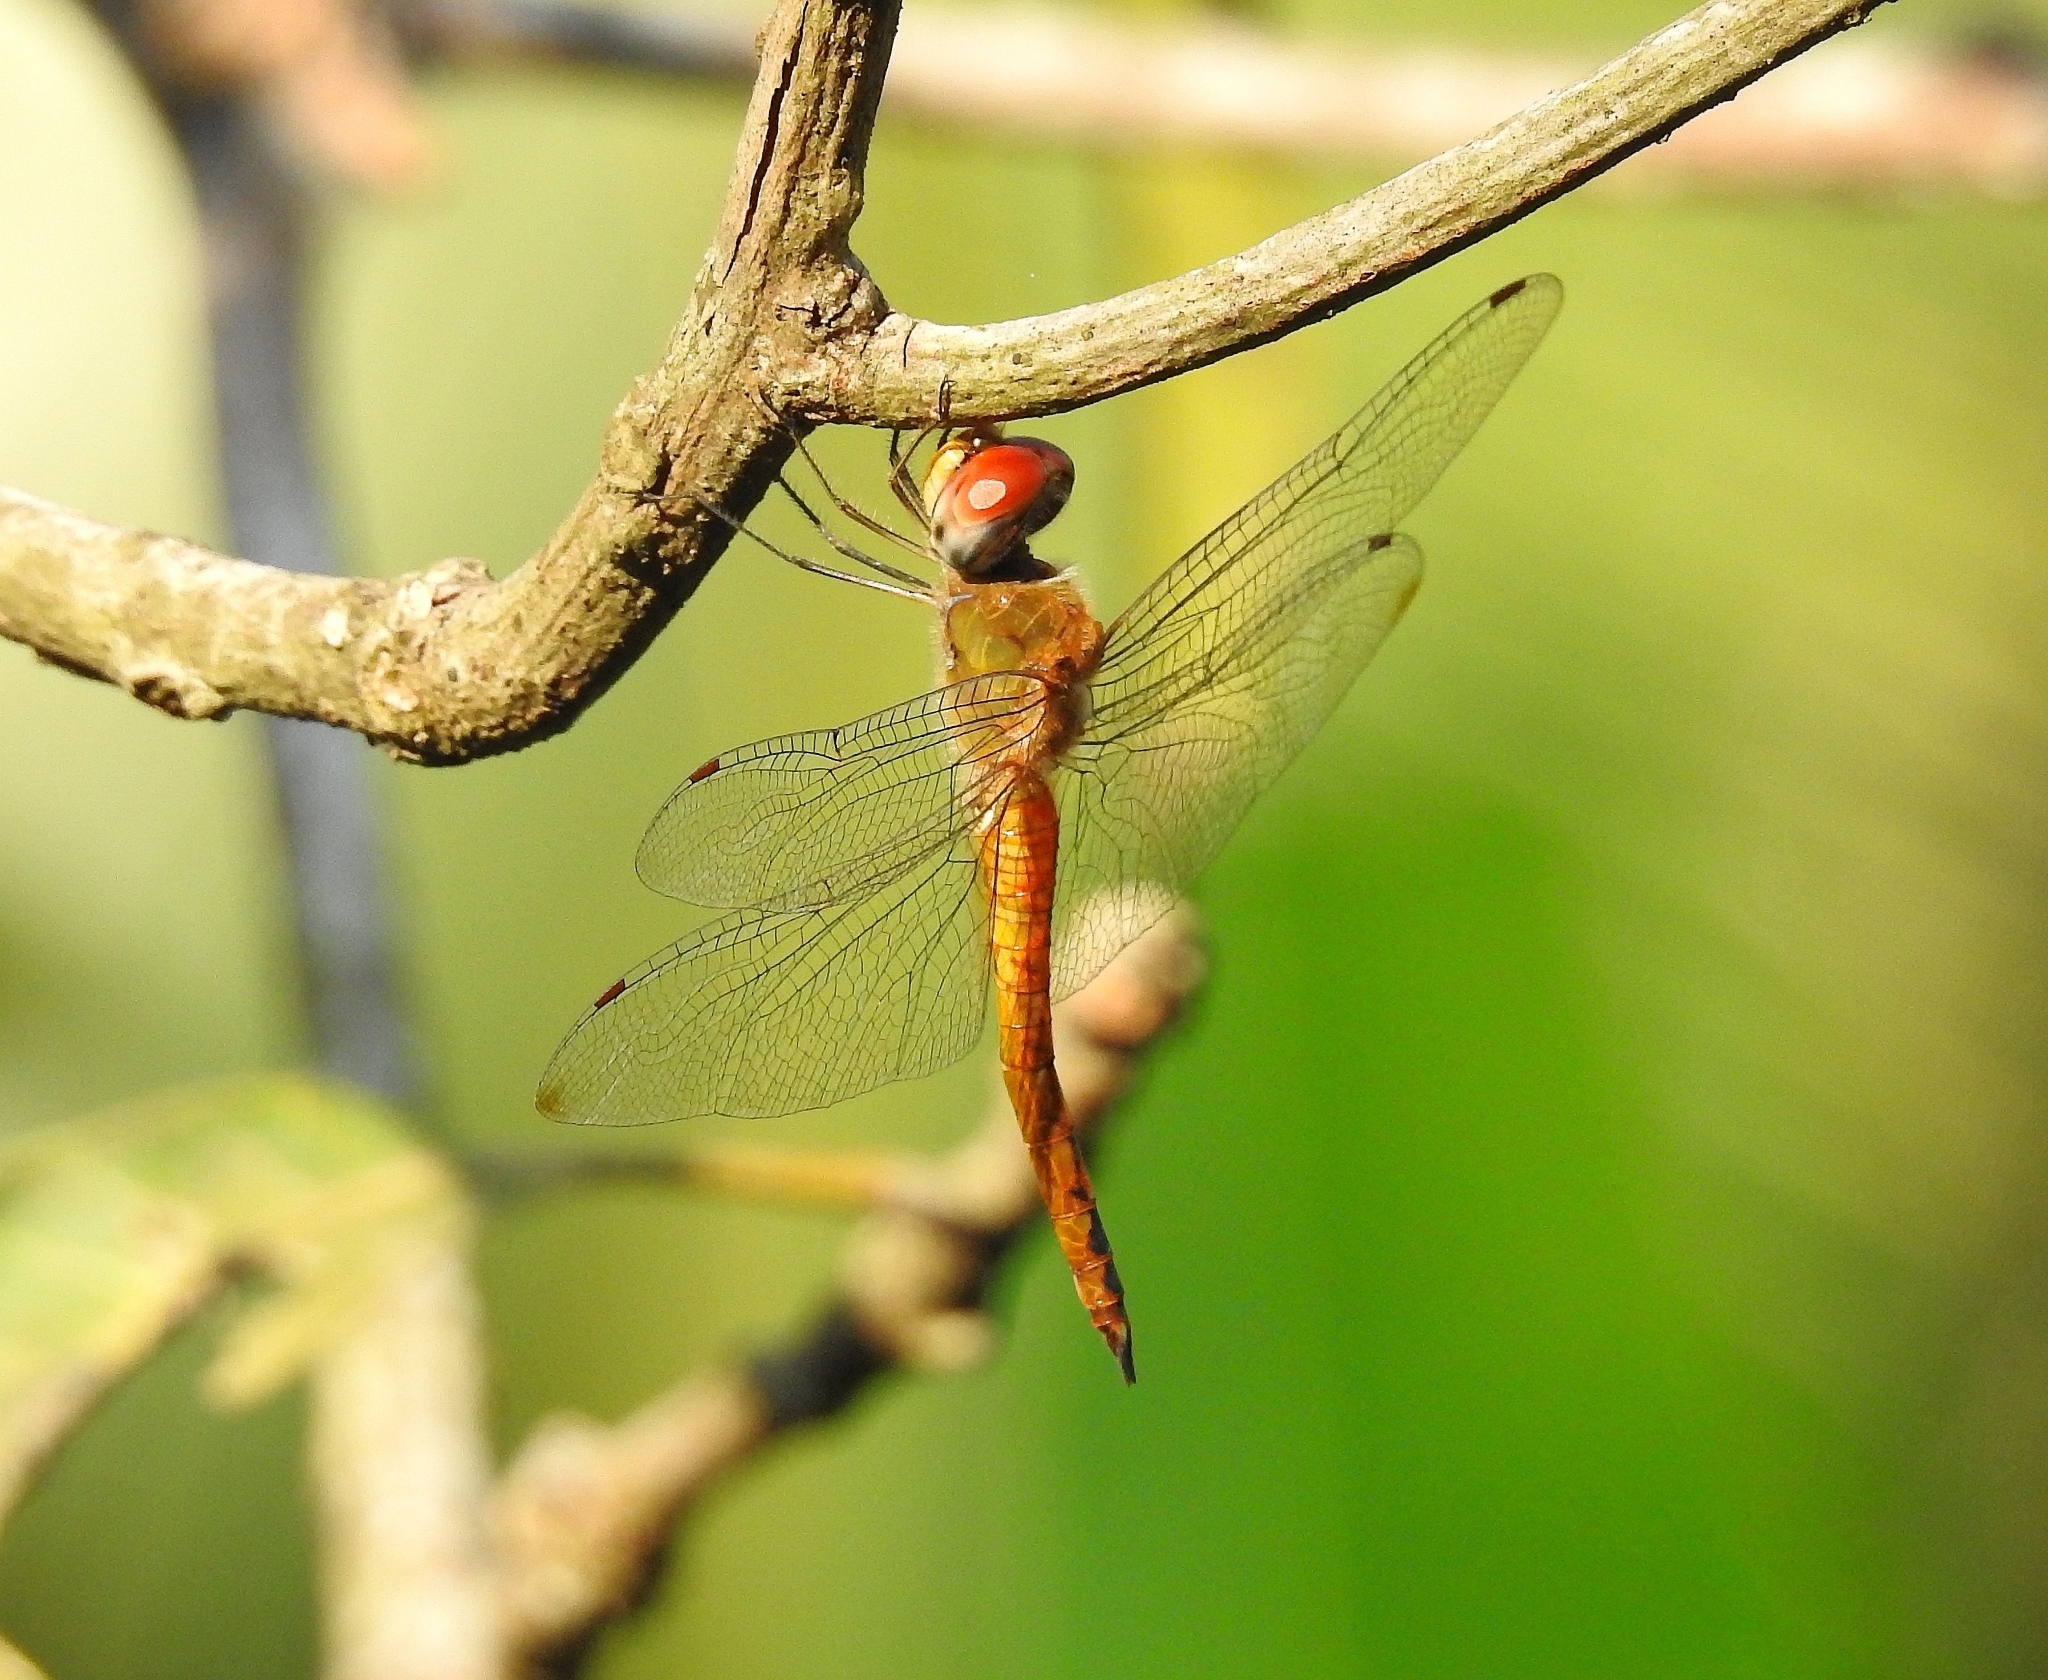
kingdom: Animalia
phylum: Arthropoda
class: Insecta
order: Odonata
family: Libellulidae
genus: Pantala
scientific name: Pantala flavescens
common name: Wandering glider
